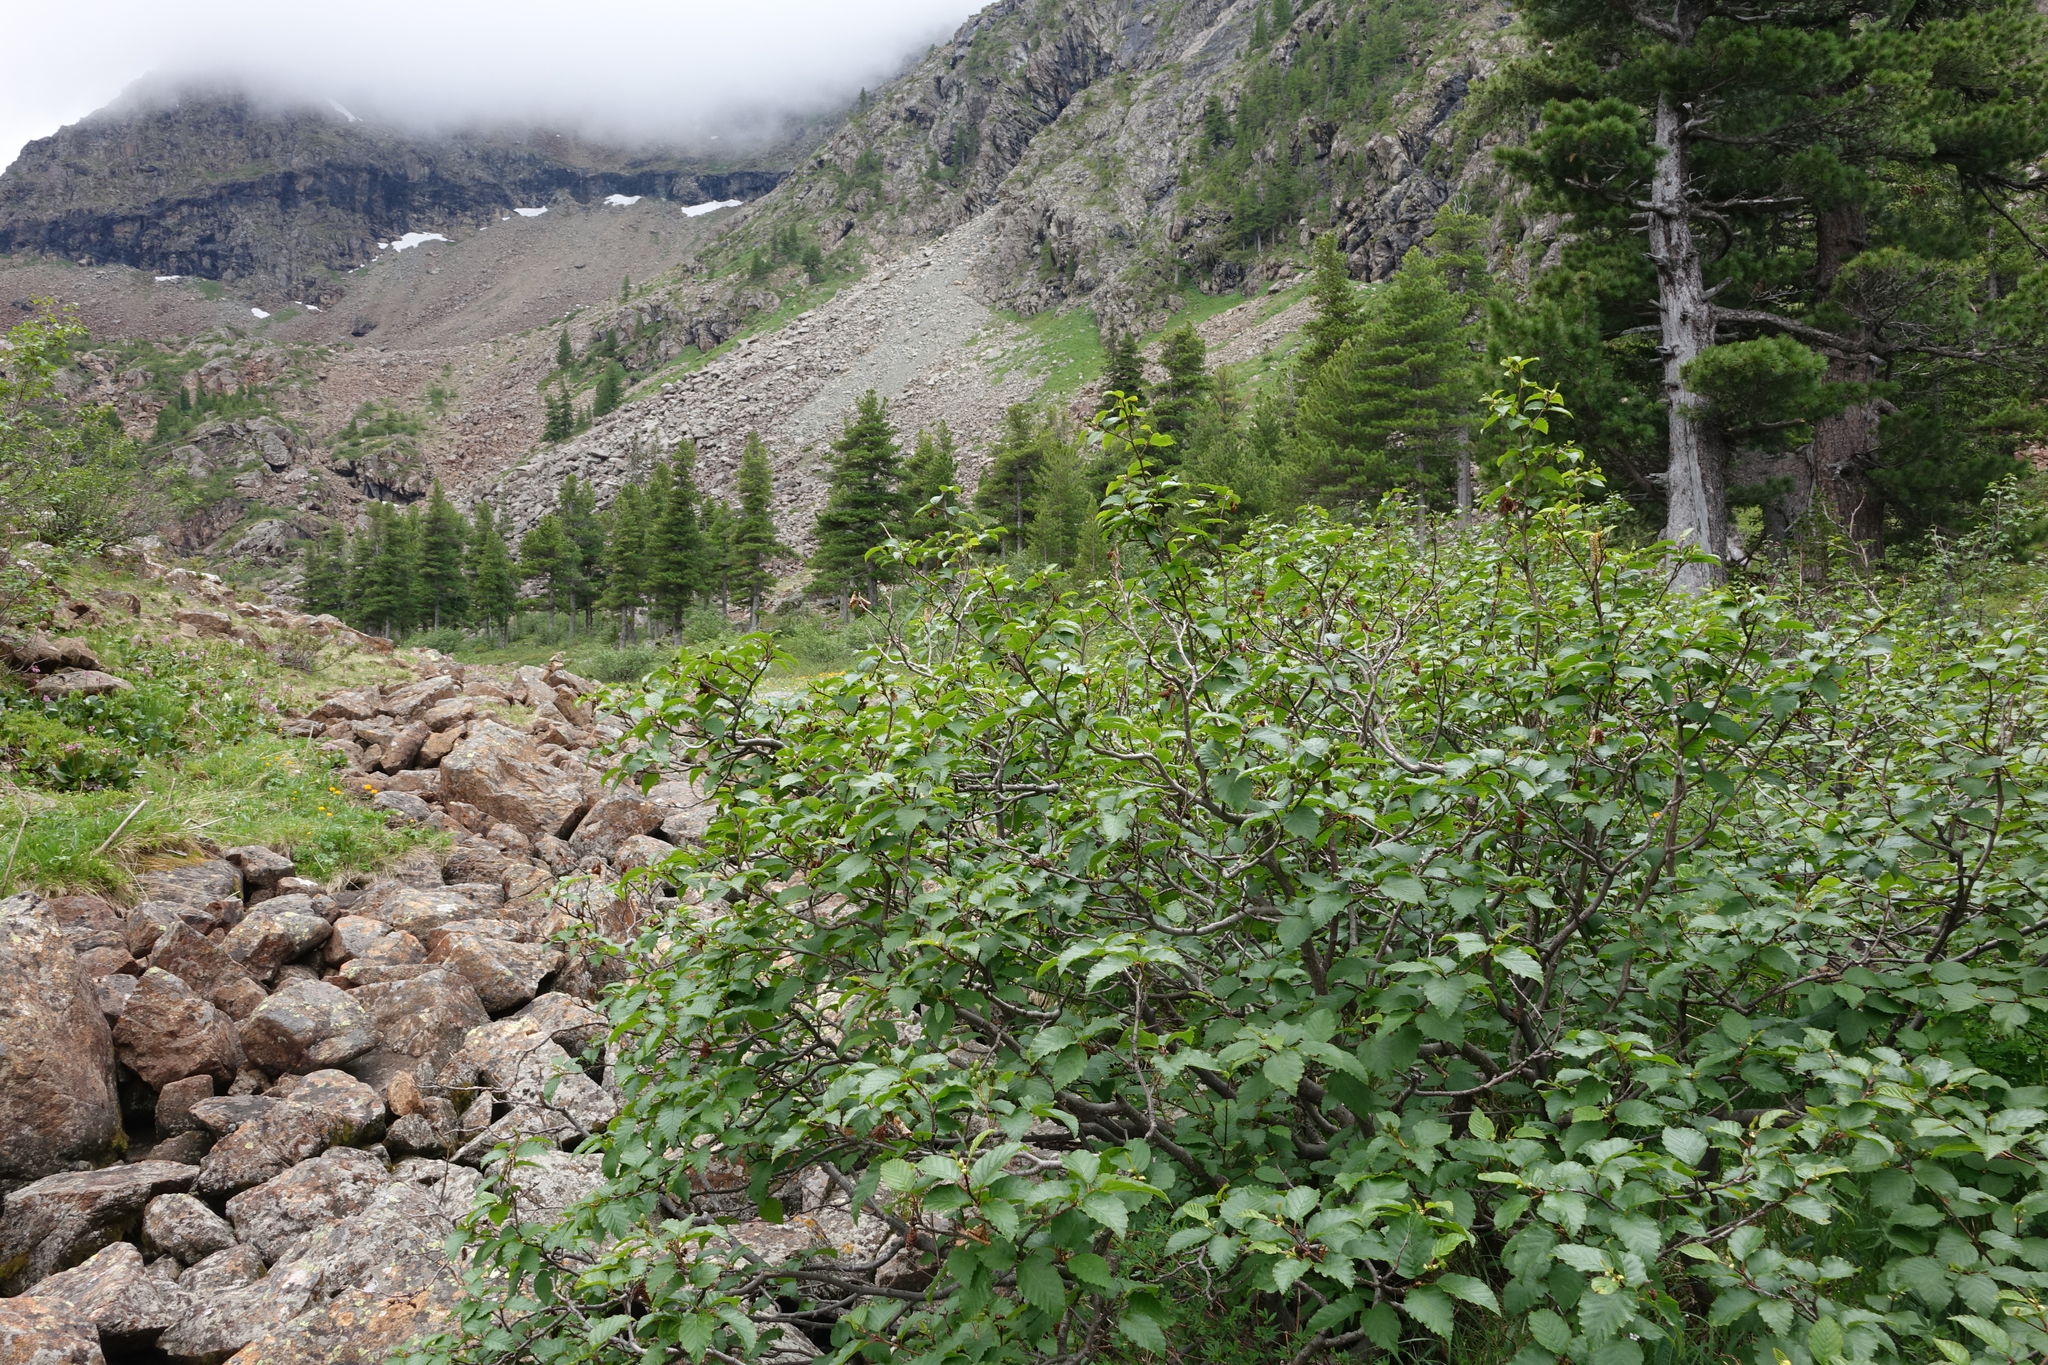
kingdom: Plantae
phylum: Tracheophyta
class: Magnoliopsida
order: Fagales
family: Betulaceae
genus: Alnus
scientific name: Alnus alnobetula
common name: Green alder
